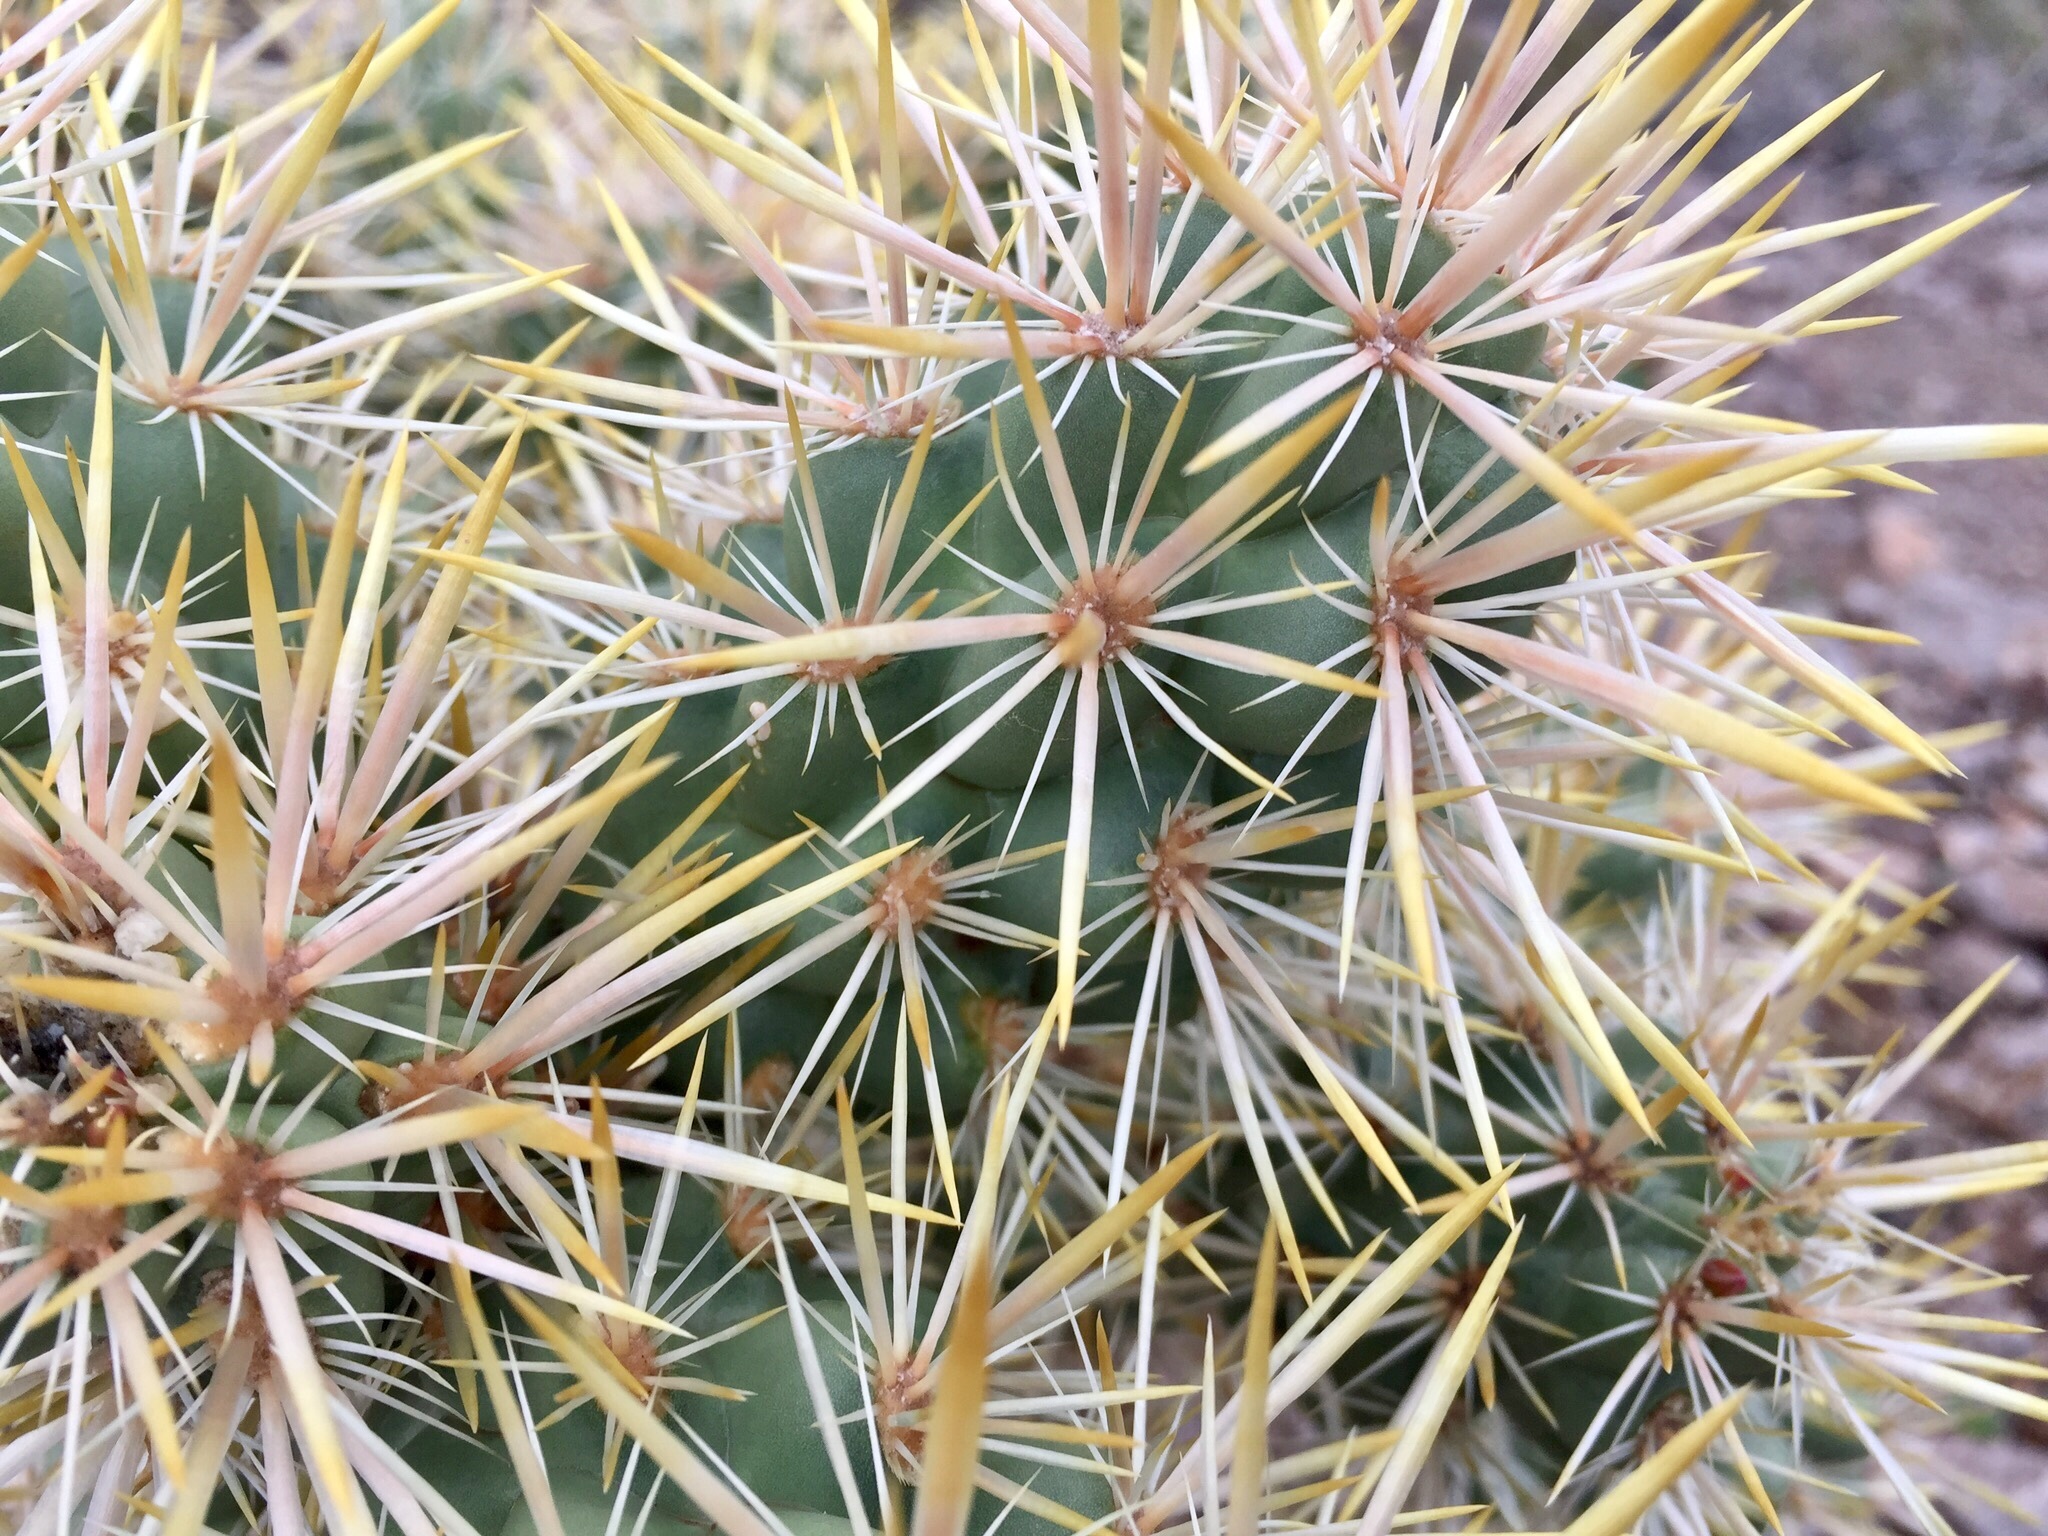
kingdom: Plantae
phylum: Tracheophyta
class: Magnoliopsida
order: Caryophyllales
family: Cactaceae
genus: Cylindropuntia
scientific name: Cylindropuntia echinocarpa
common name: Ground cholla
